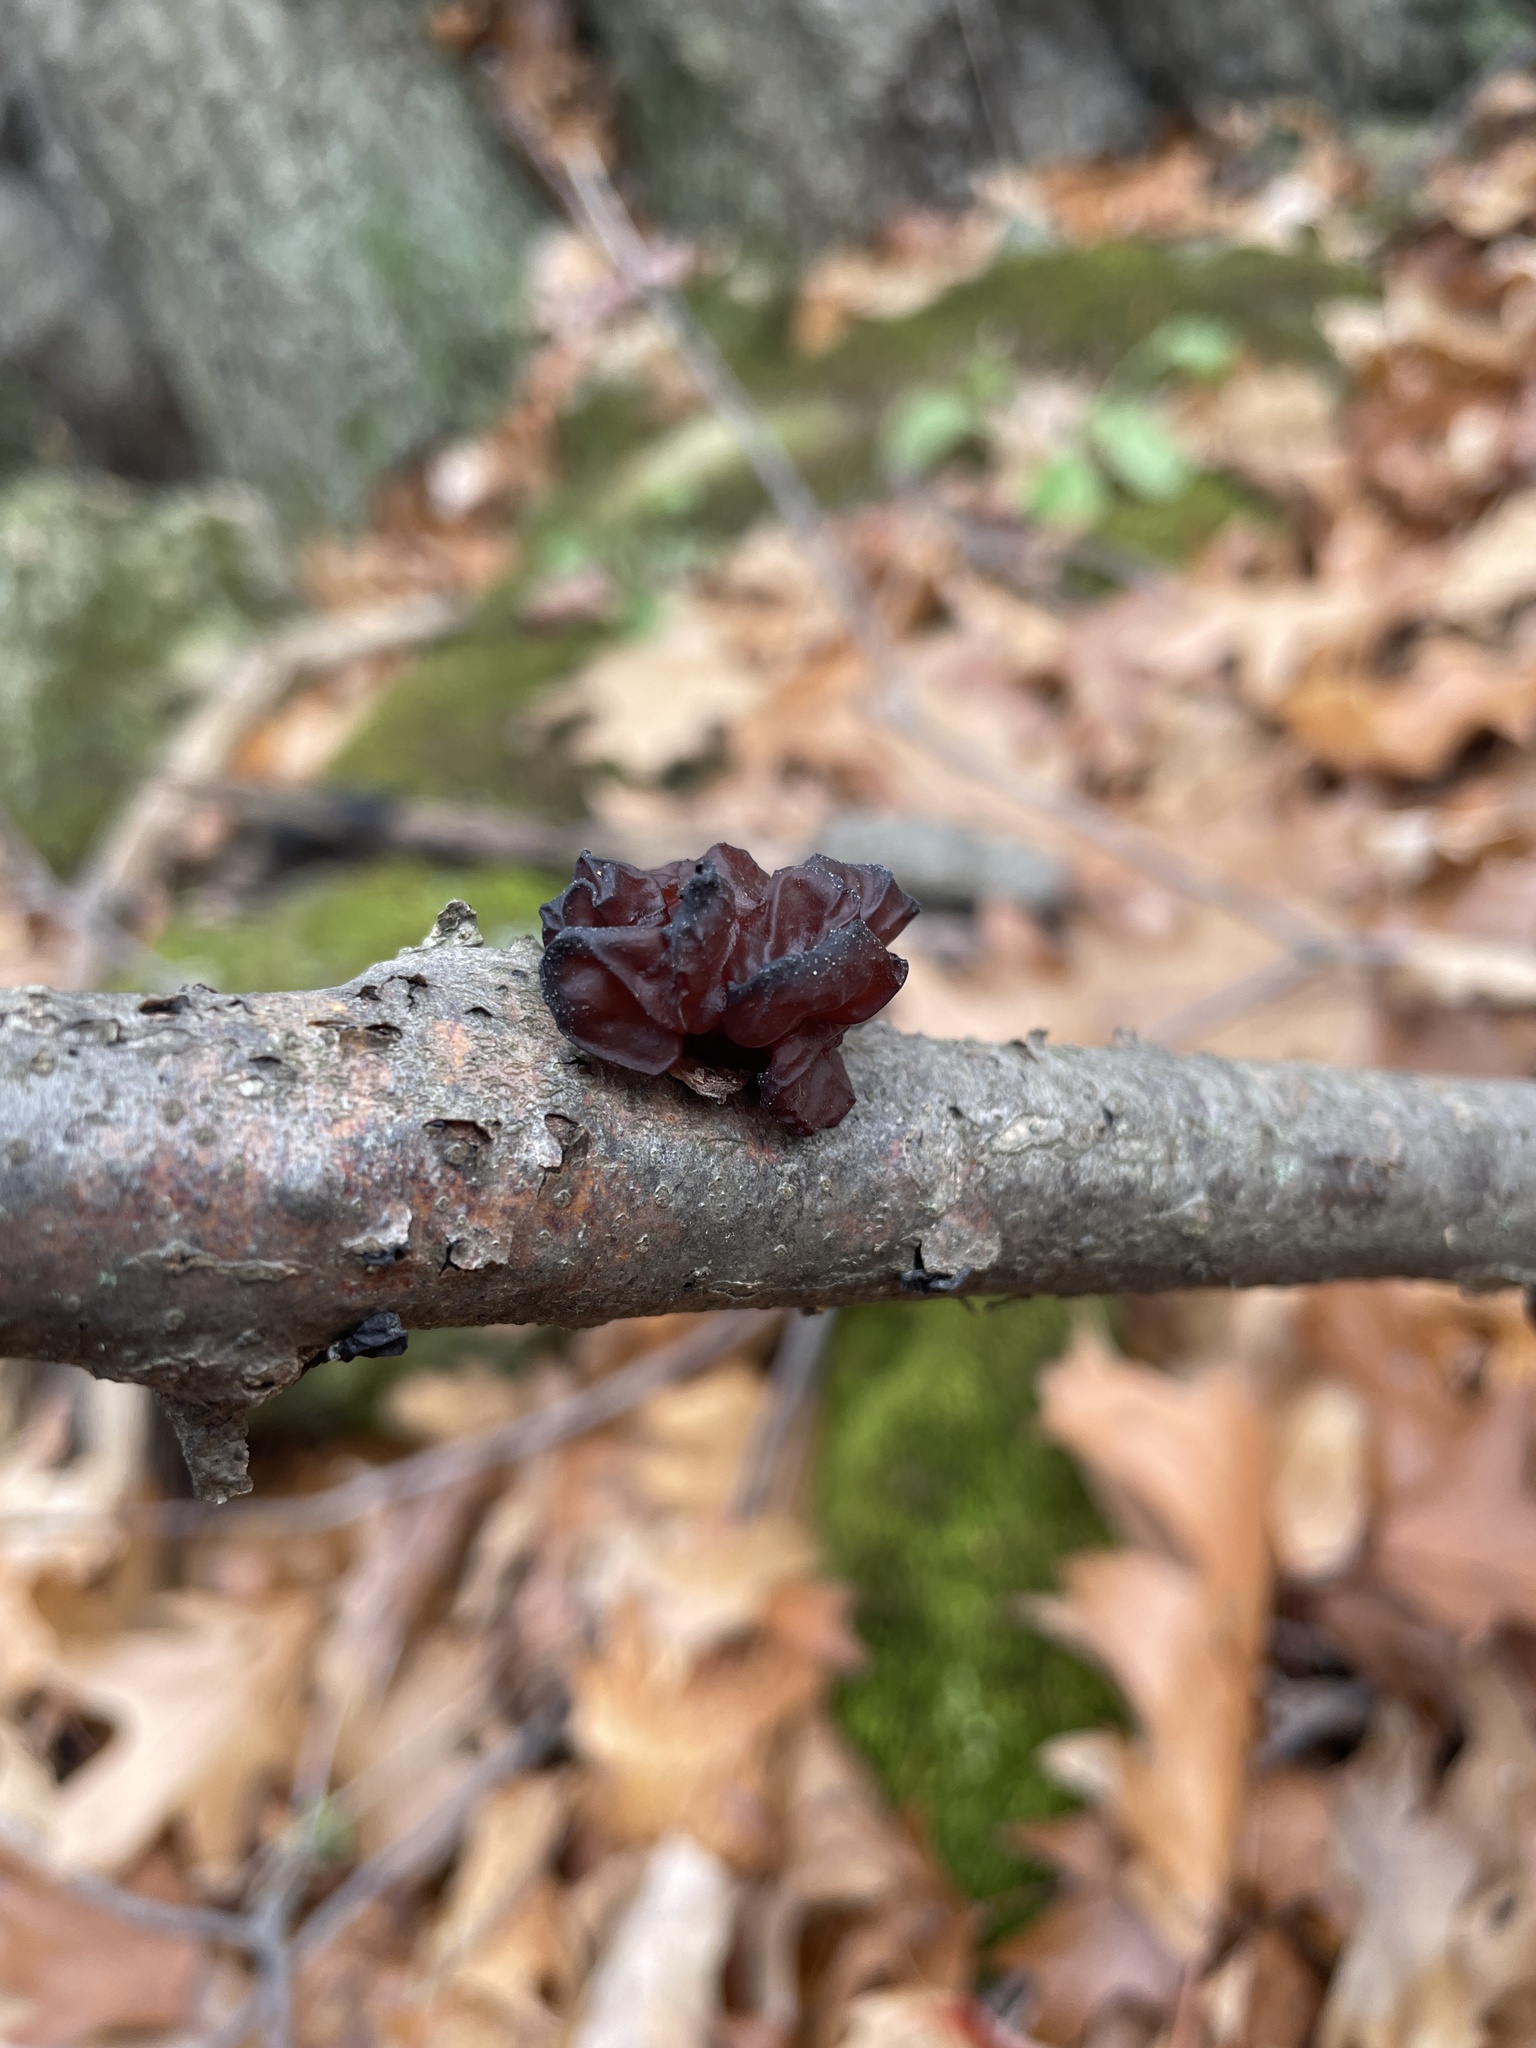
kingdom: Fungi
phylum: Basidiomycota
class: Agaricomycetes
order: Auriculariales
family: Auriculariaceae
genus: Exidia
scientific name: Exidia
